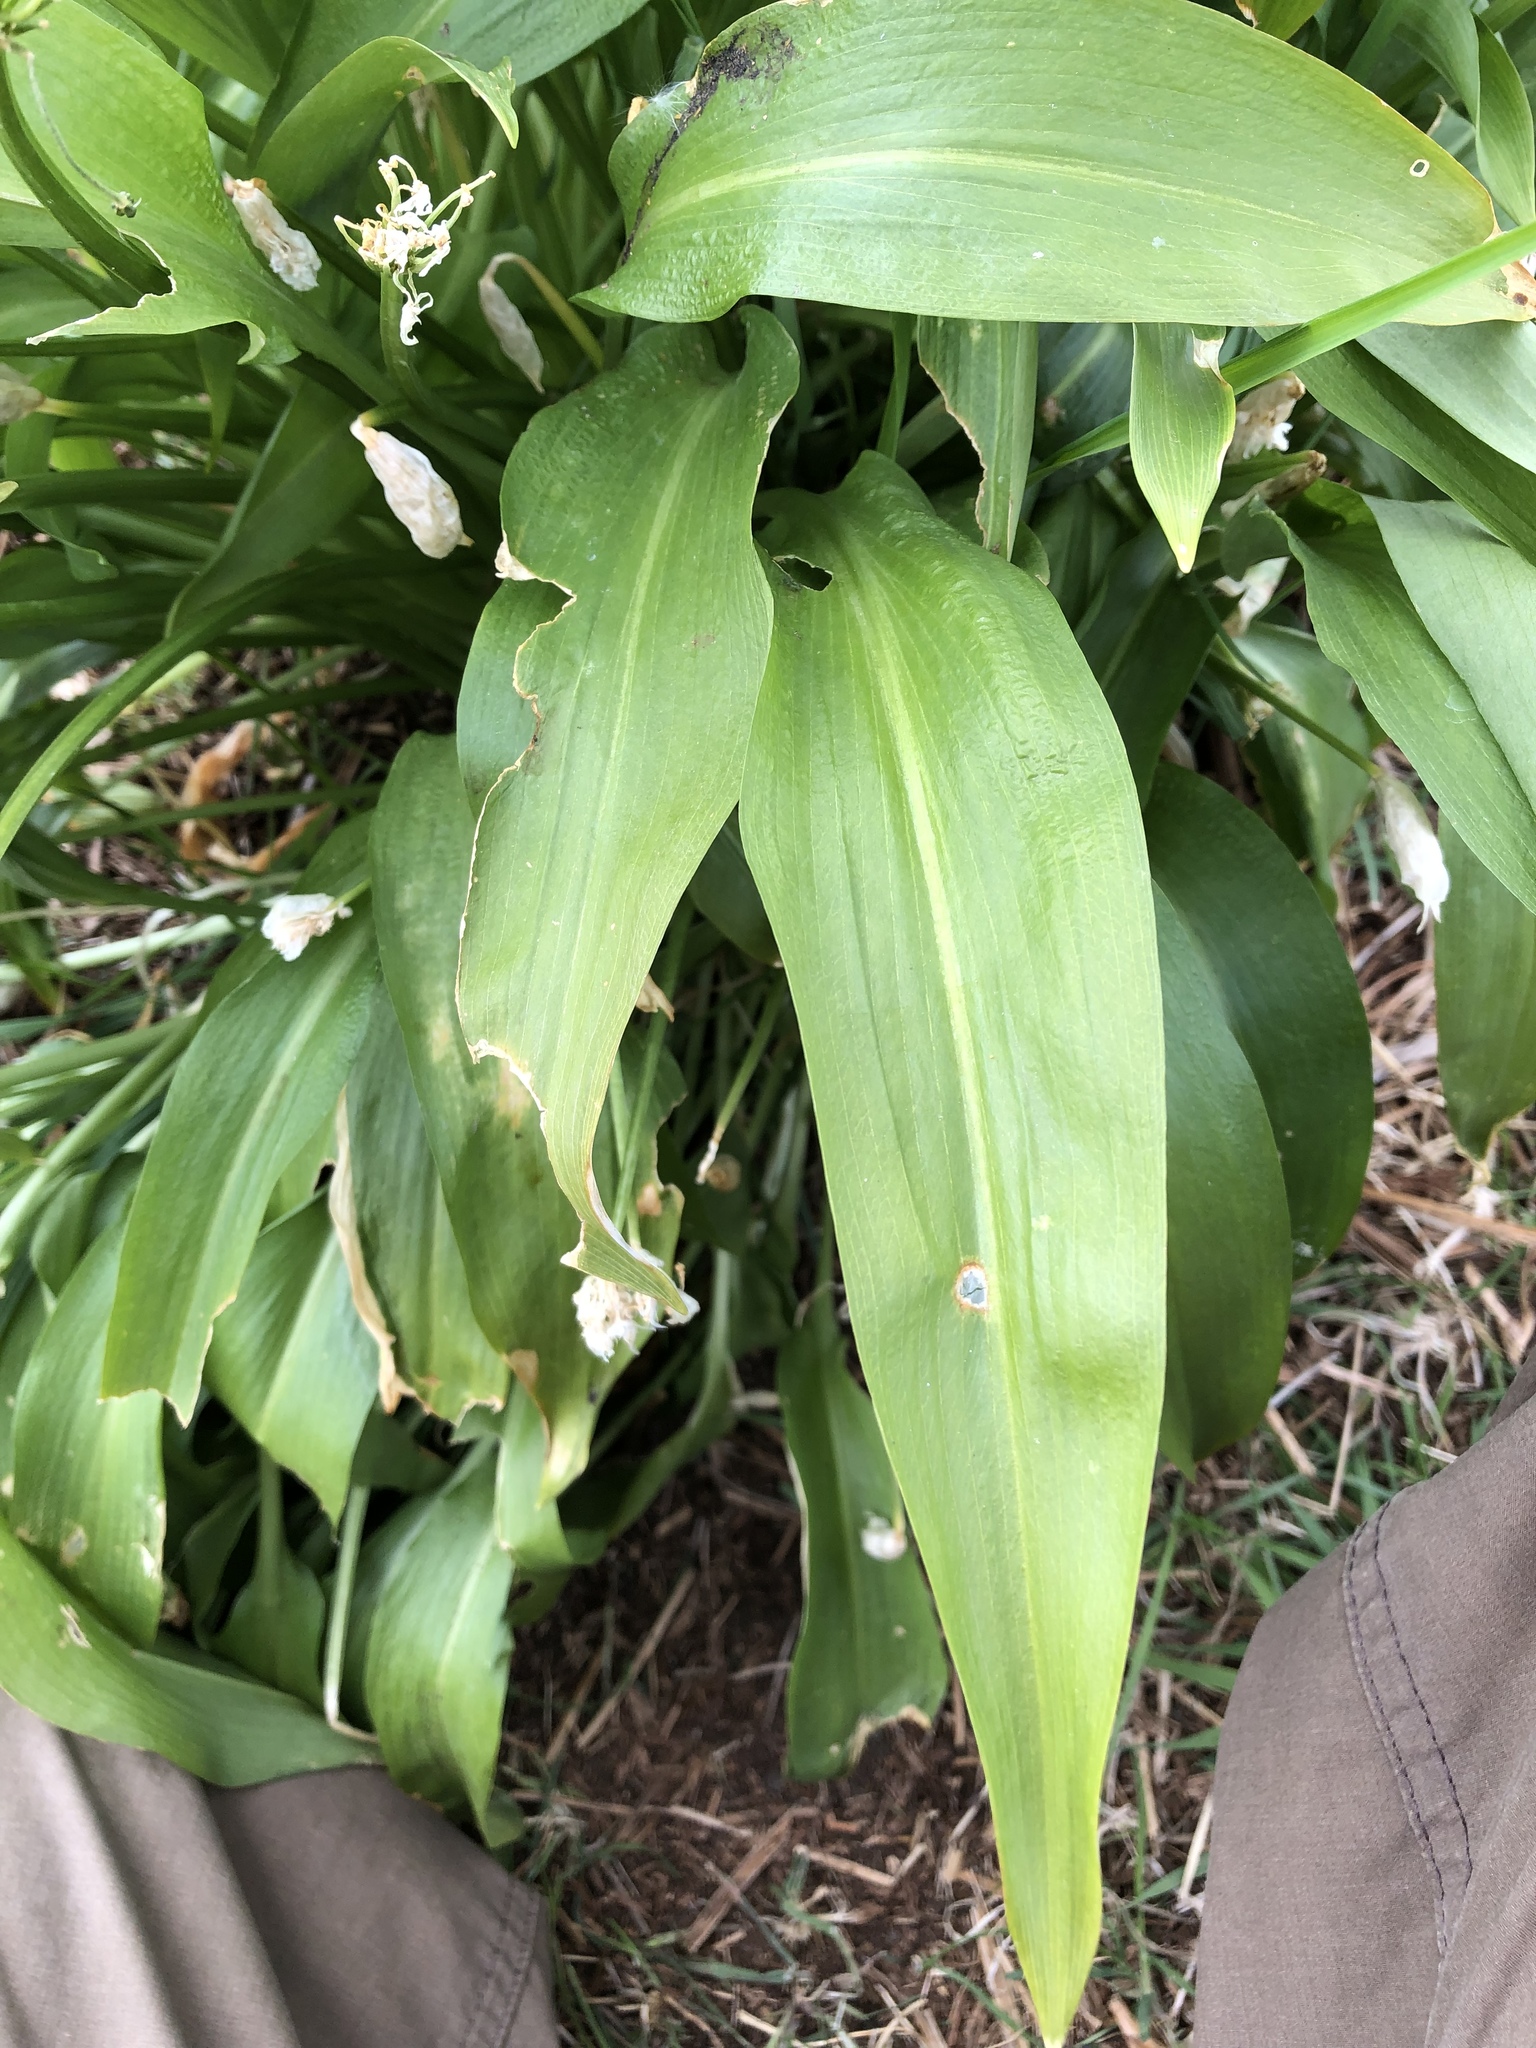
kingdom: Plantae
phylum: Tracheophyta
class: Liliopsida
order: Asparagales
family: Amaryllidaceae
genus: Allium
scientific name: Allium ursinum
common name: Ramsons
